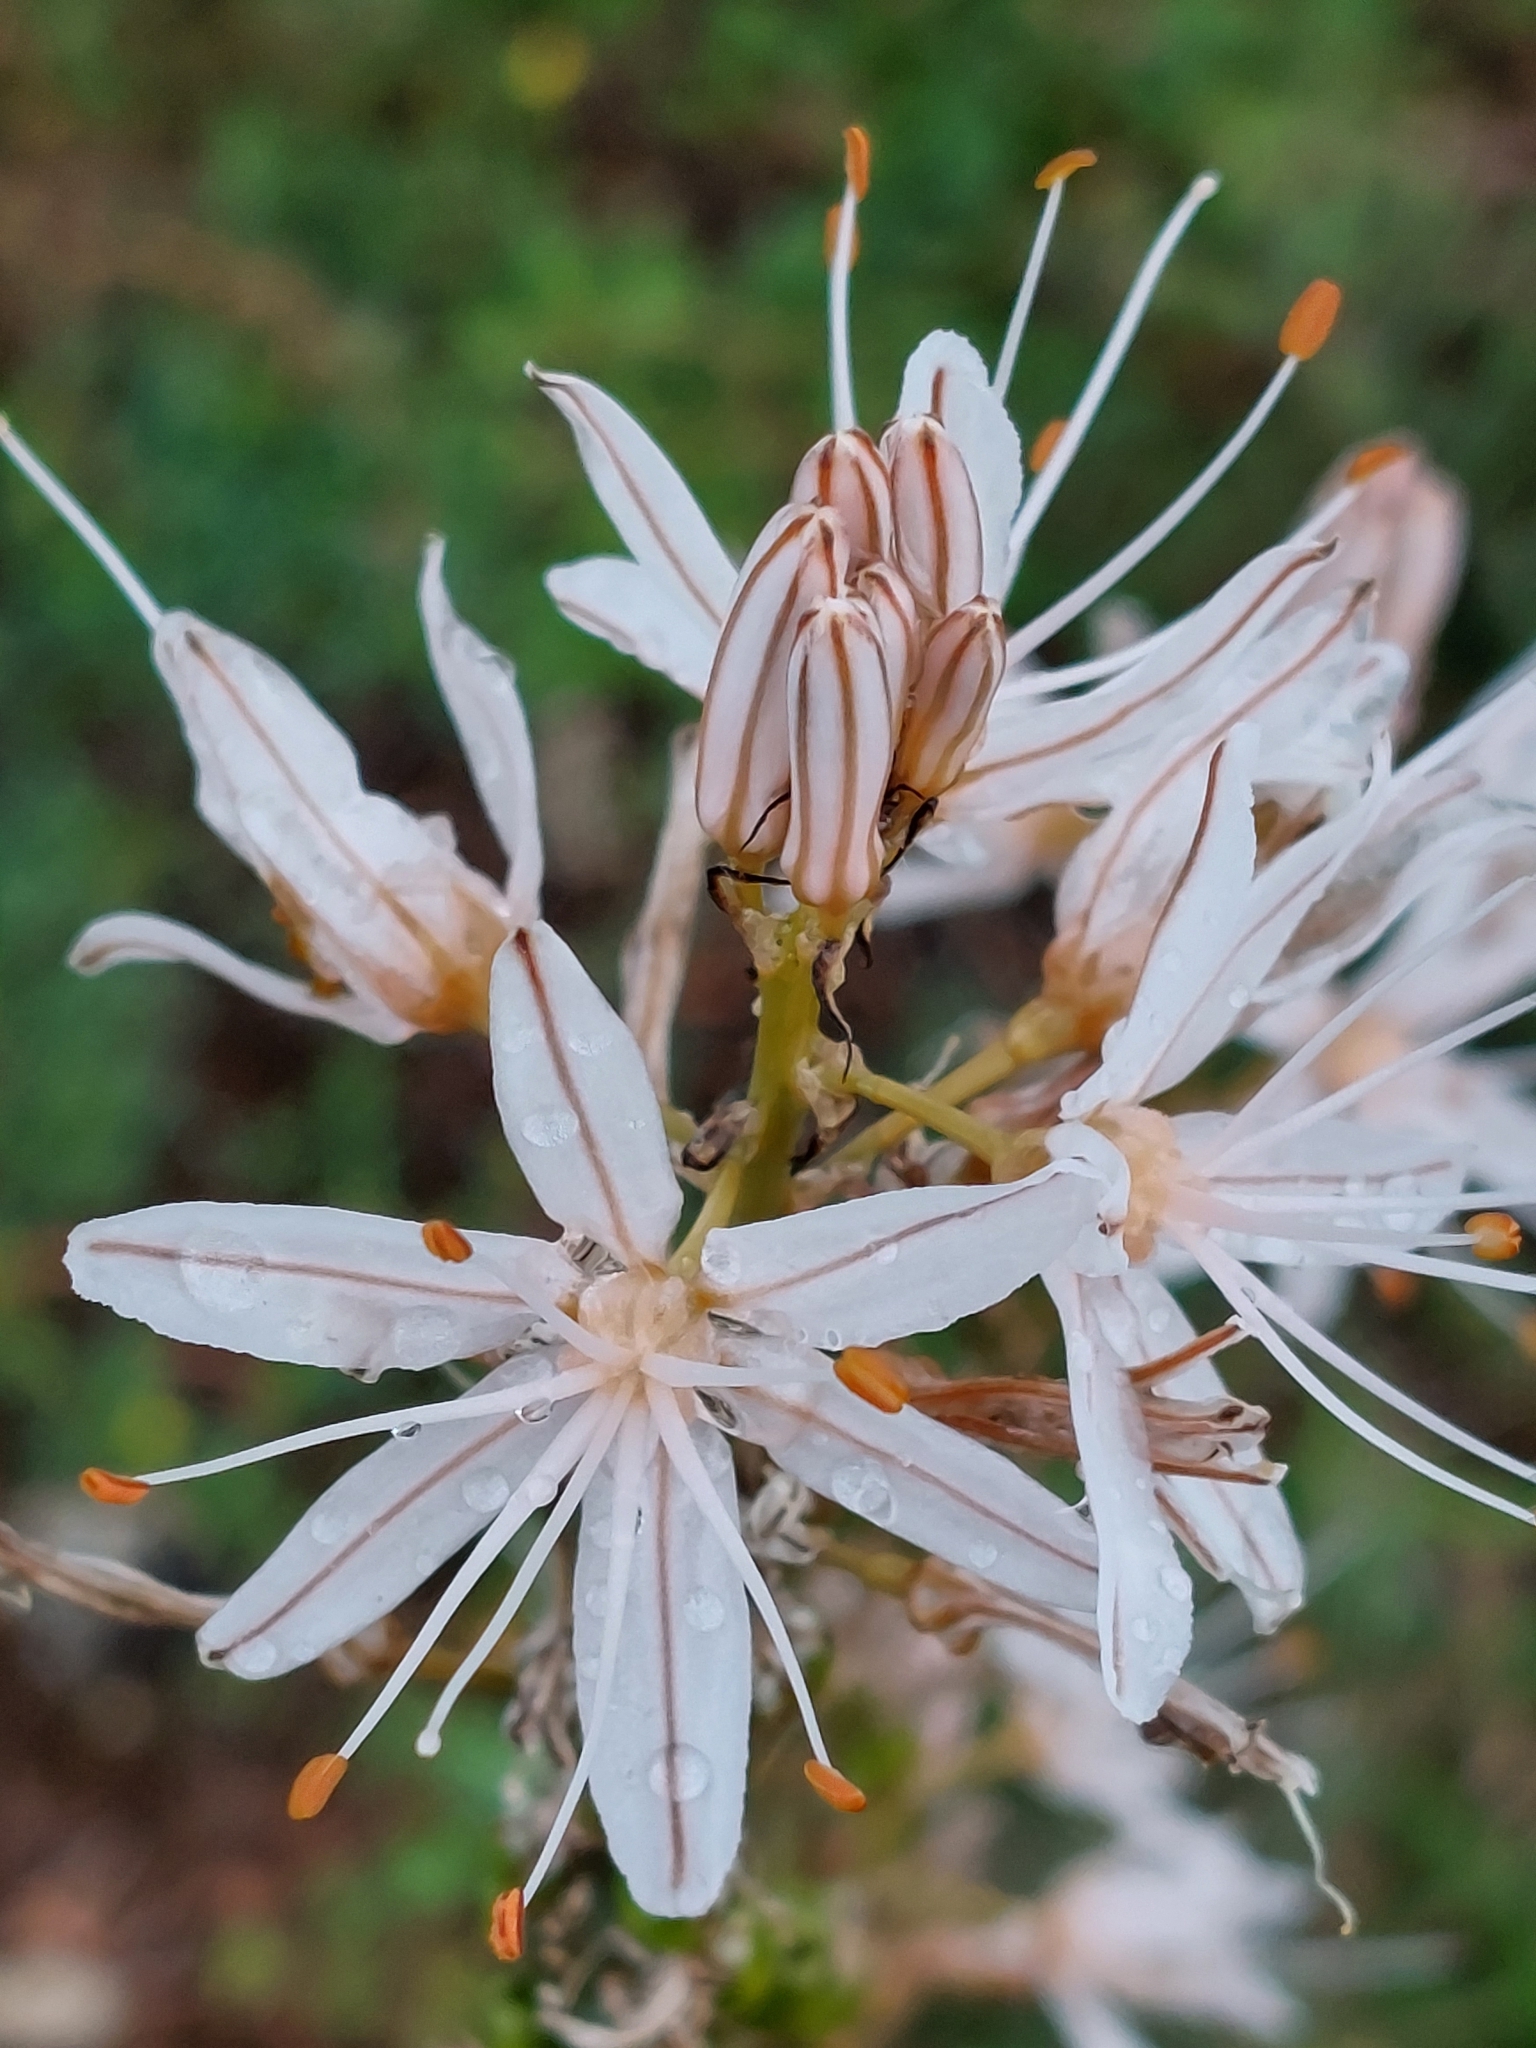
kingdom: Plantae
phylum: Tracheophyta
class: Liliopsida
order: Asparagales
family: Asphodelaceae
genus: Asphodelus
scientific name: Asphodelus ramosus
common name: Silverrod
